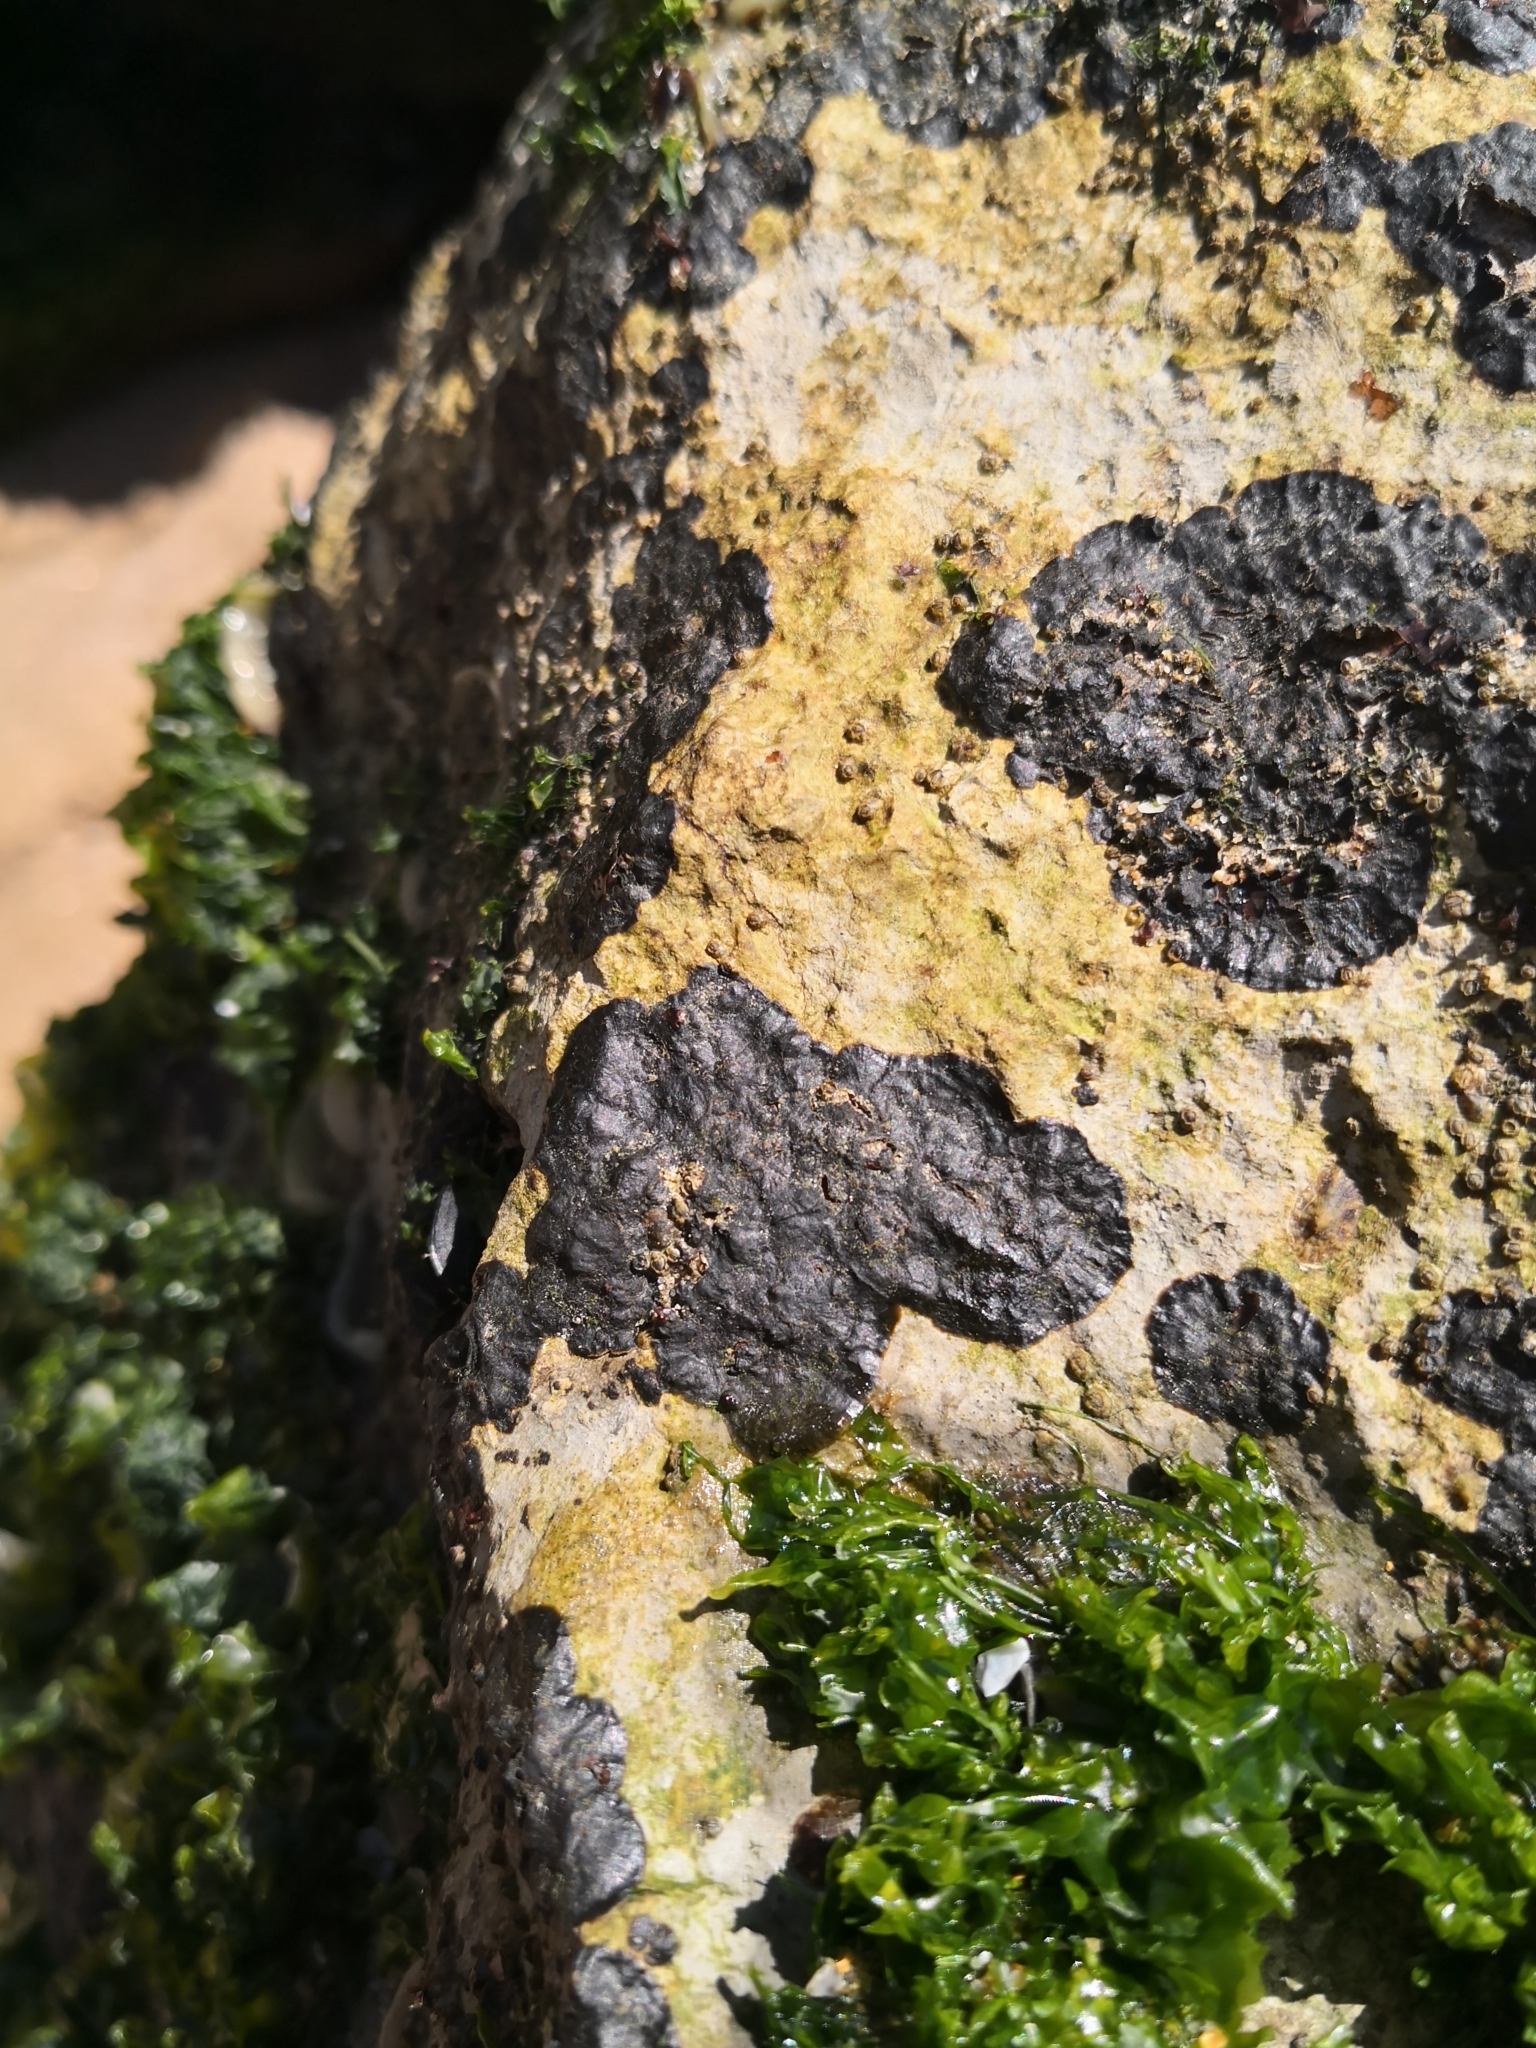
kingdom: Fungi
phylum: Ascomycota
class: Eurotiomycetes
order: Verrucariales
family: Verrucariaceae
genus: Hydropunctaria
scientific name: Hydropunctaria maura
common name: Tar lichen
